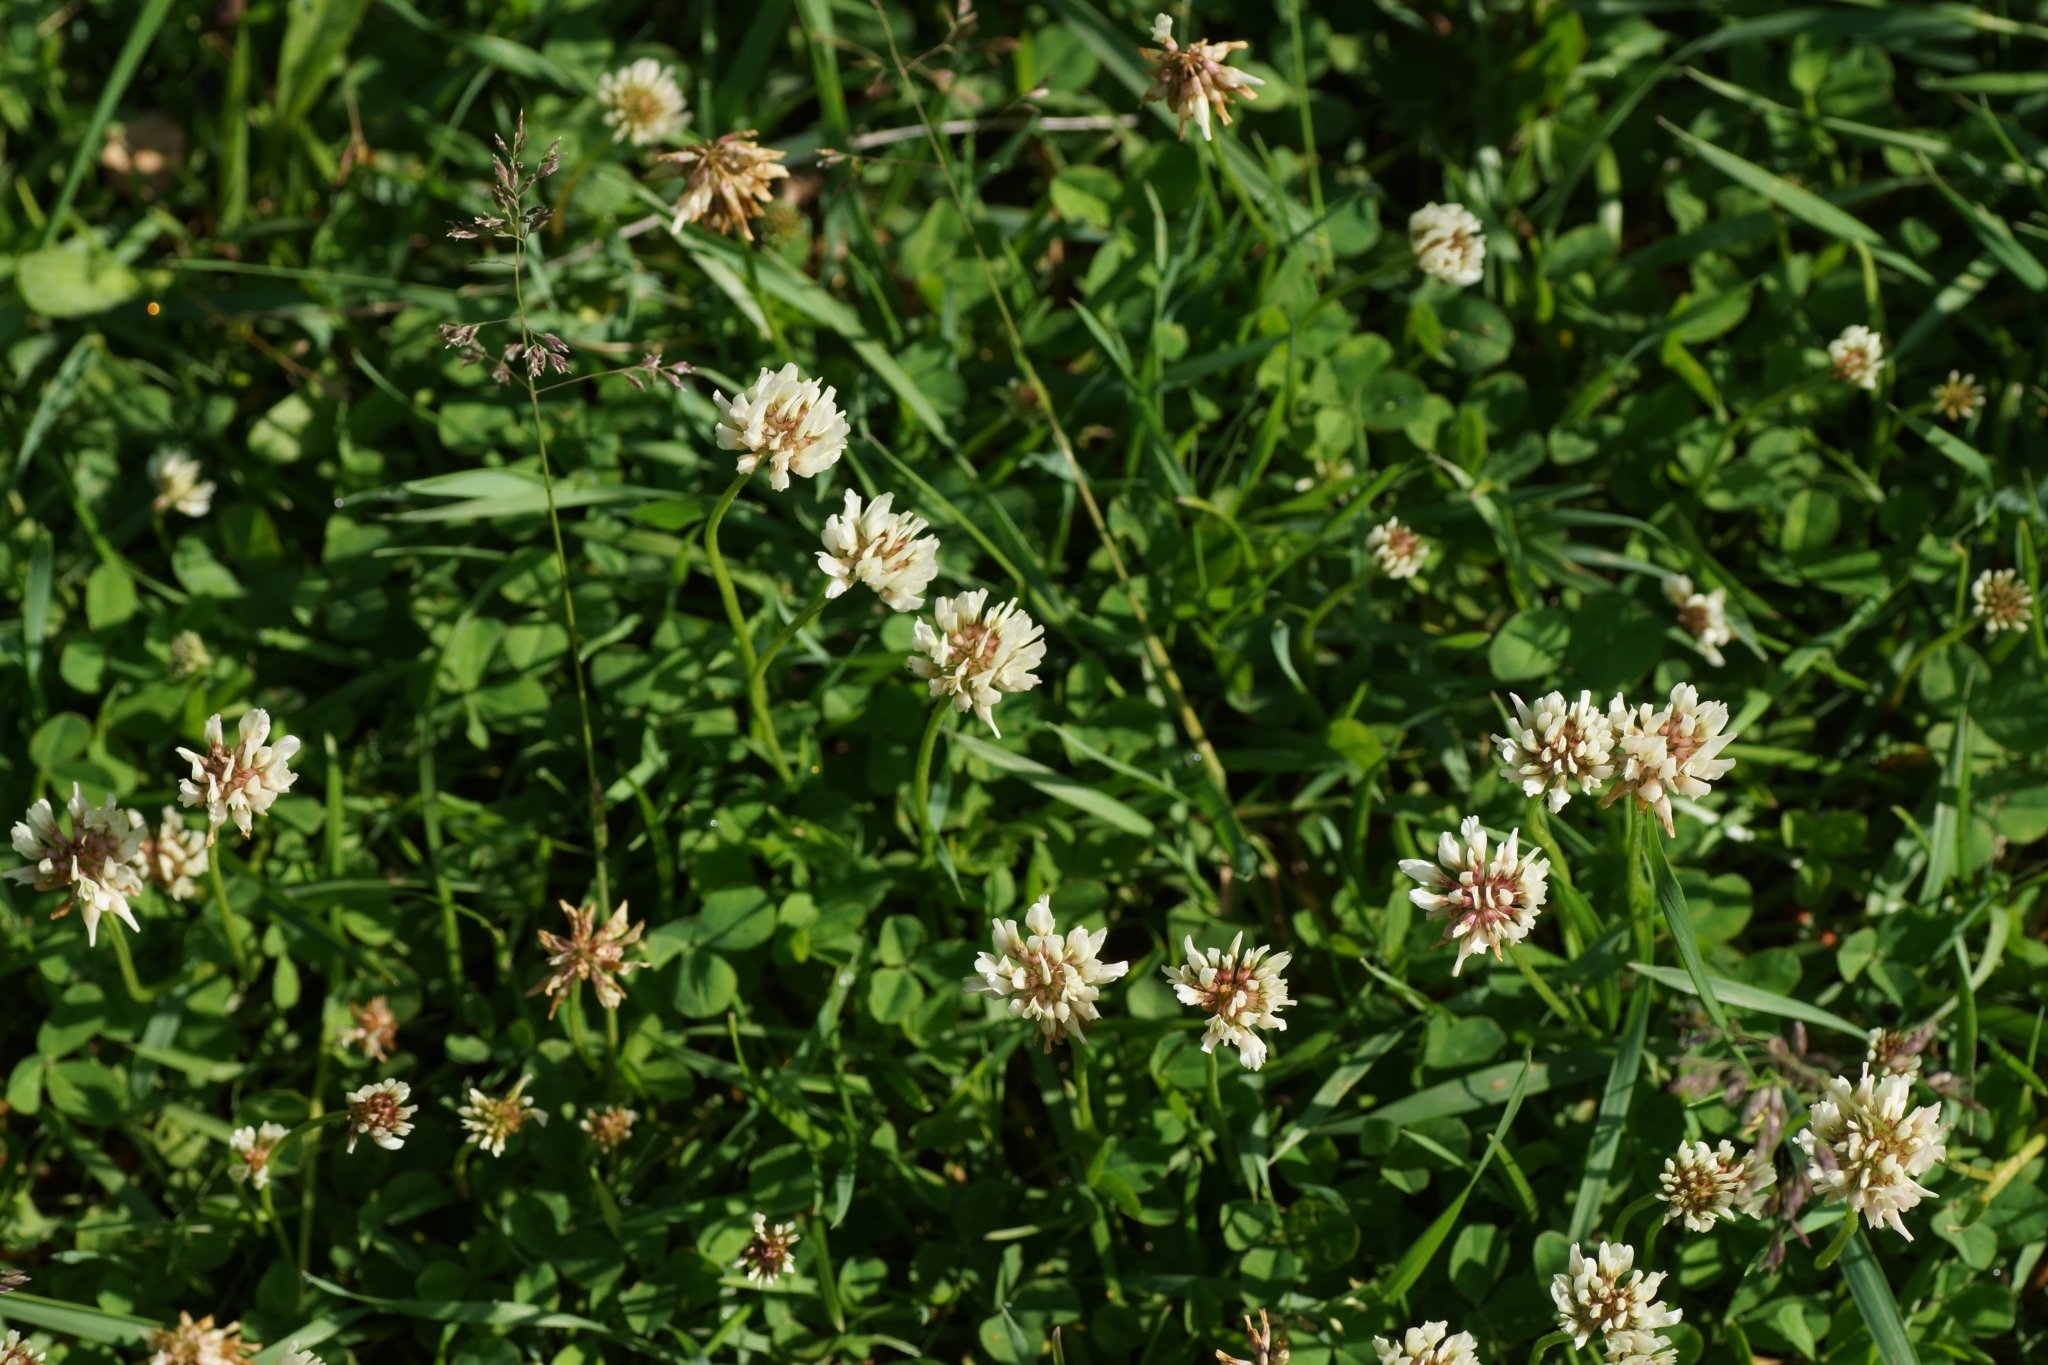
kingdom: Plantae
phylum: Tracheophyta
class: Magnoliopsida
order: Fabales
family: Fabaceae
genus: Trifolium
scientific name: Trifolium repens
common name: White clover
